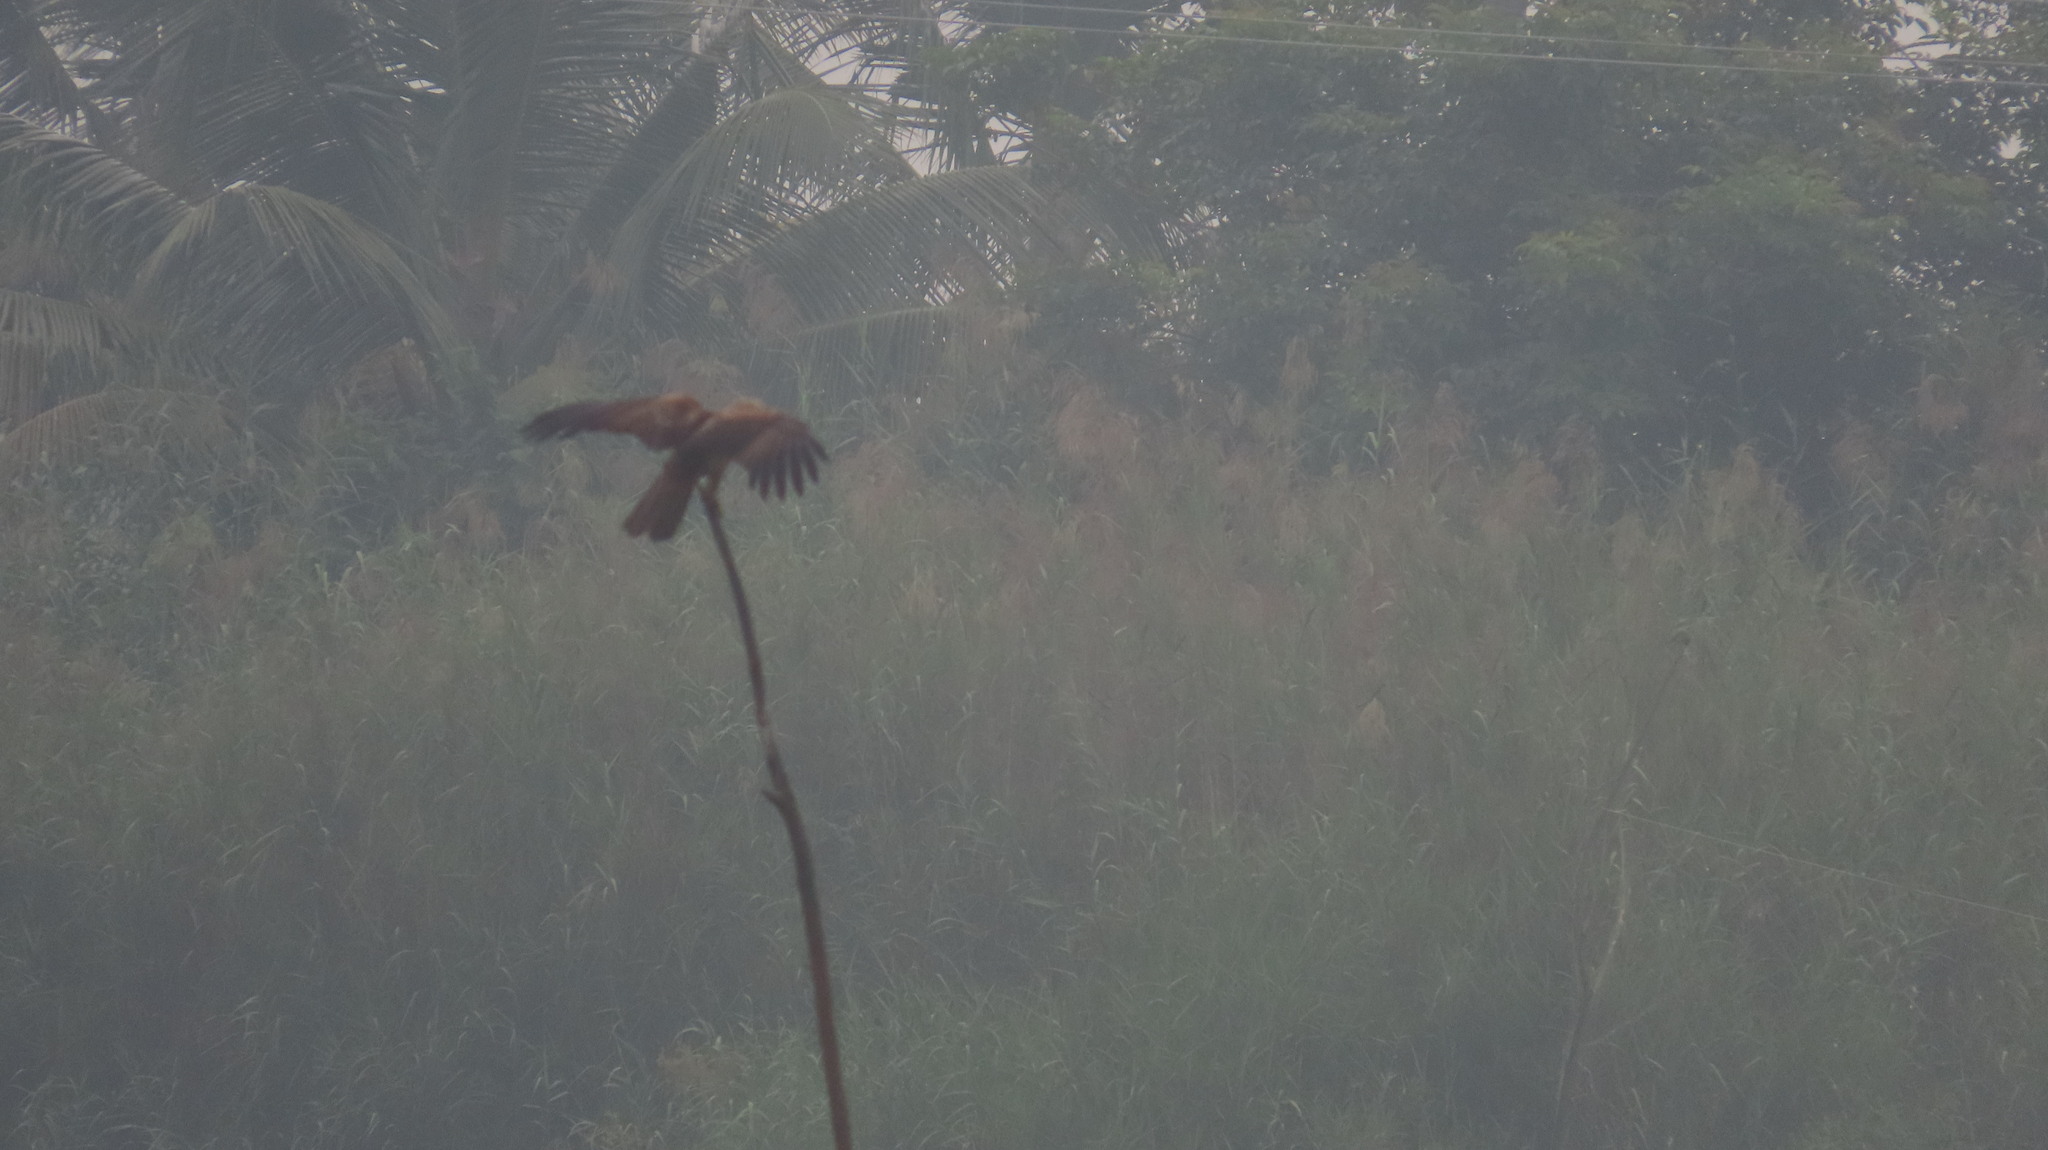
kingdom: Animalia
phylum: Chordata
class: Aves
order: Accipitriformes
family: Accipitridae
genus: Haliastur
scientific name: Haliastur indus
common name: Brahminy kite
